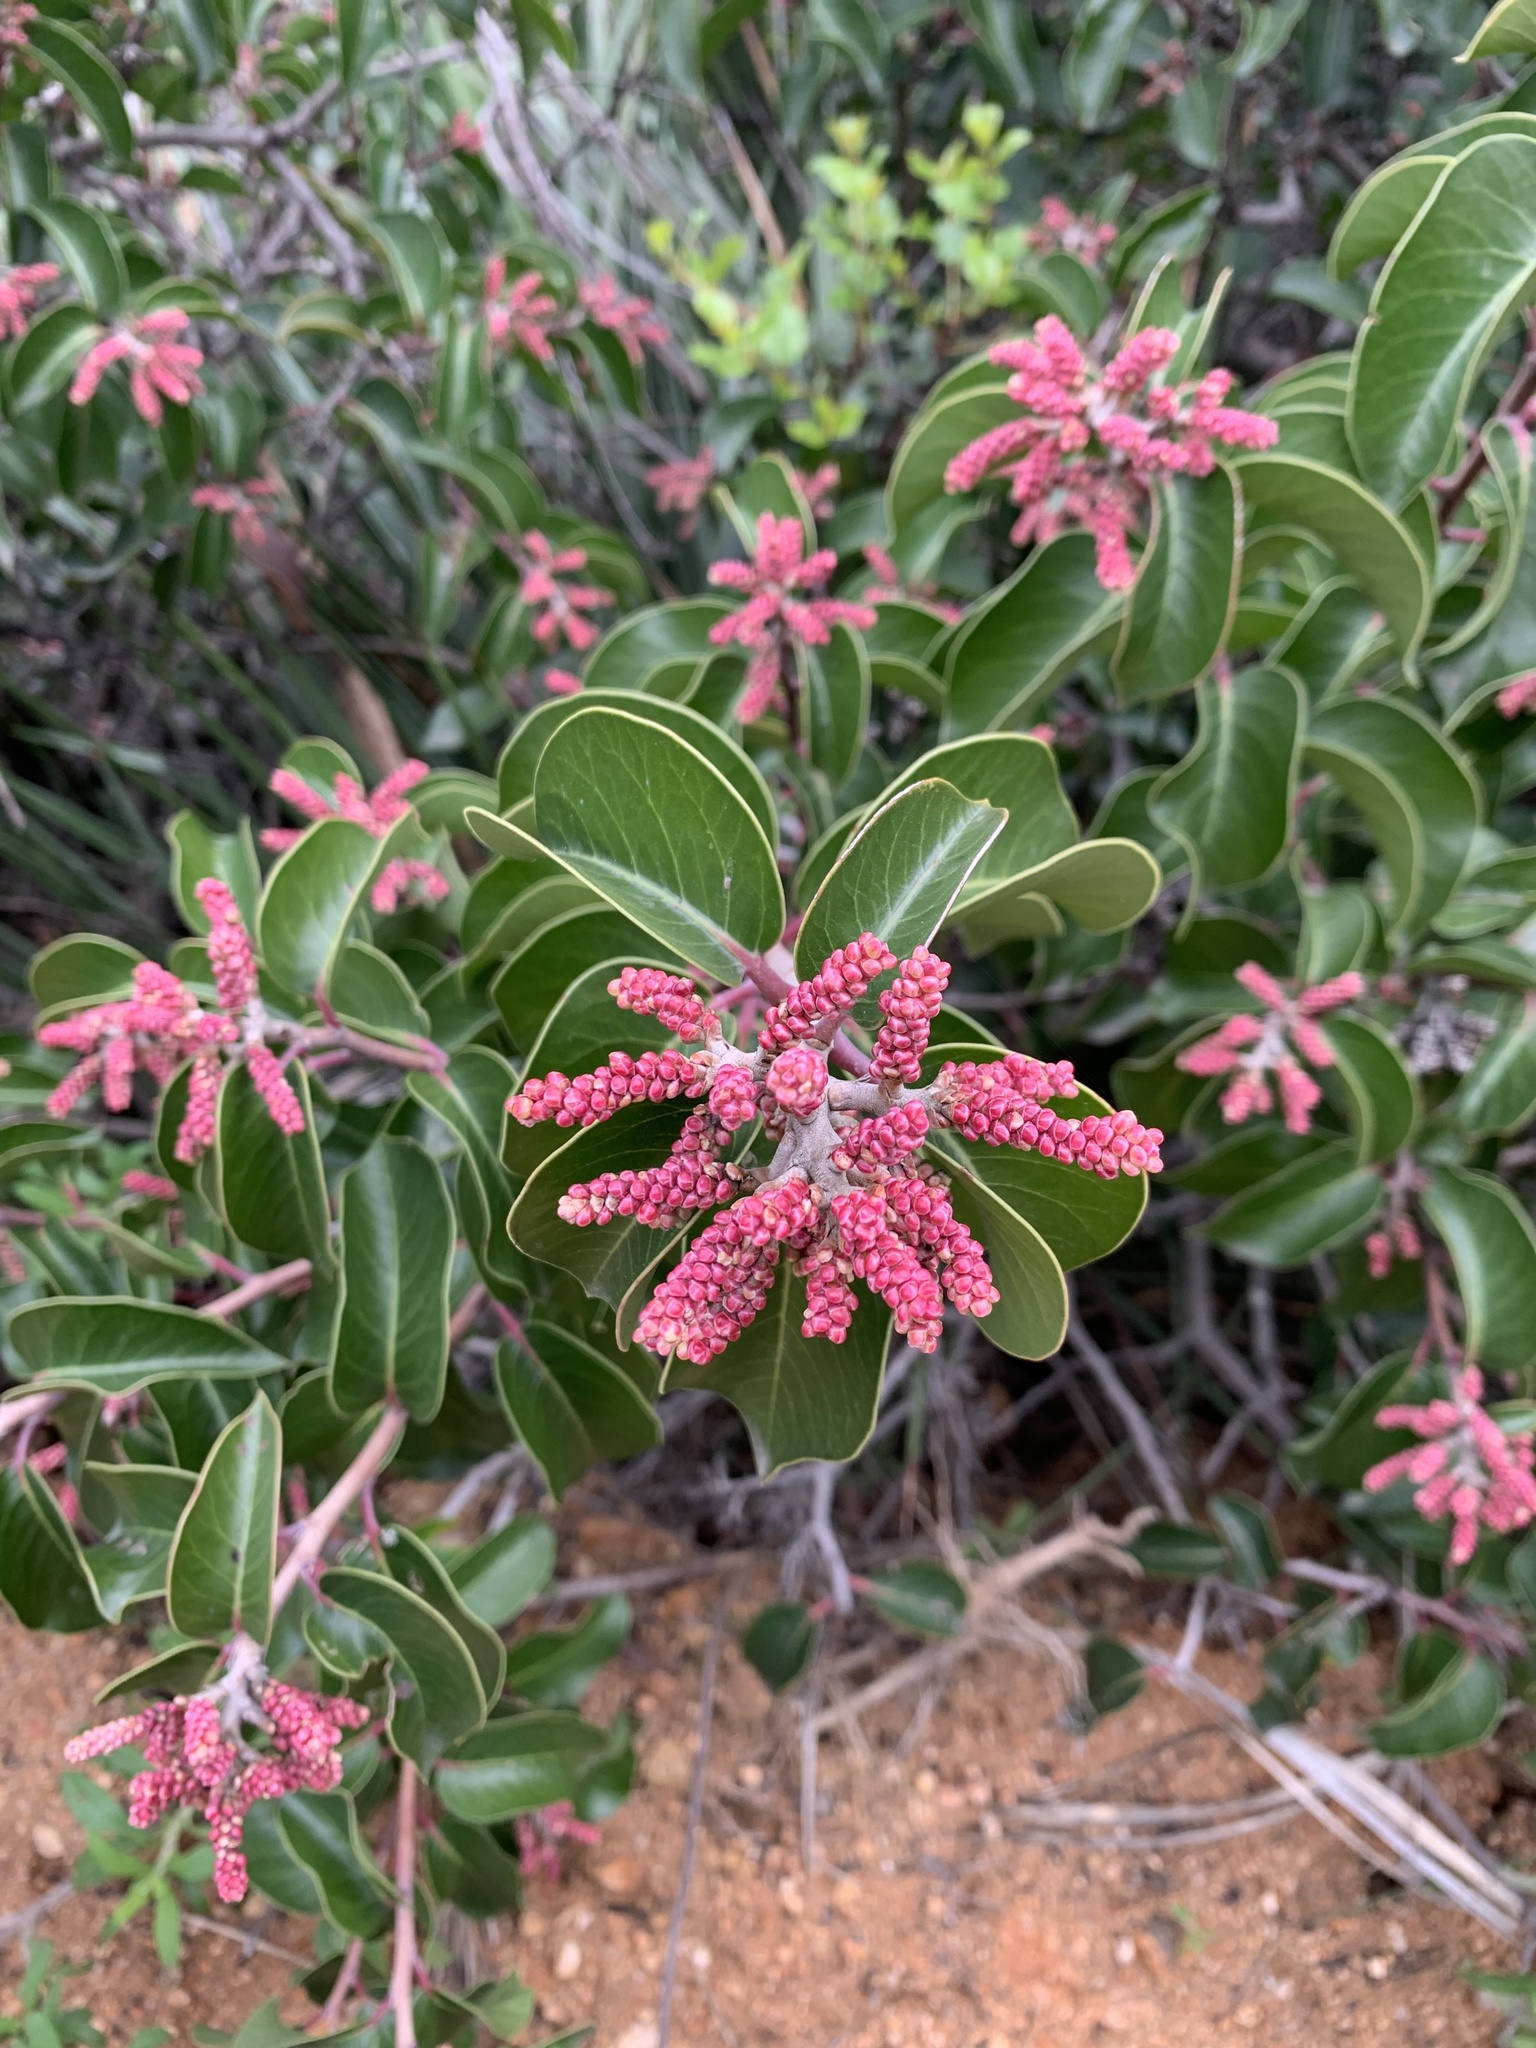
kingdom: Plantae
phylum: Tracheophyta
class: Magnoliopsida
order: Sapindales
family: Anacardiaceae
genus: Rhus
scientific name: Rhus ovata
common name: Sugar sumac
